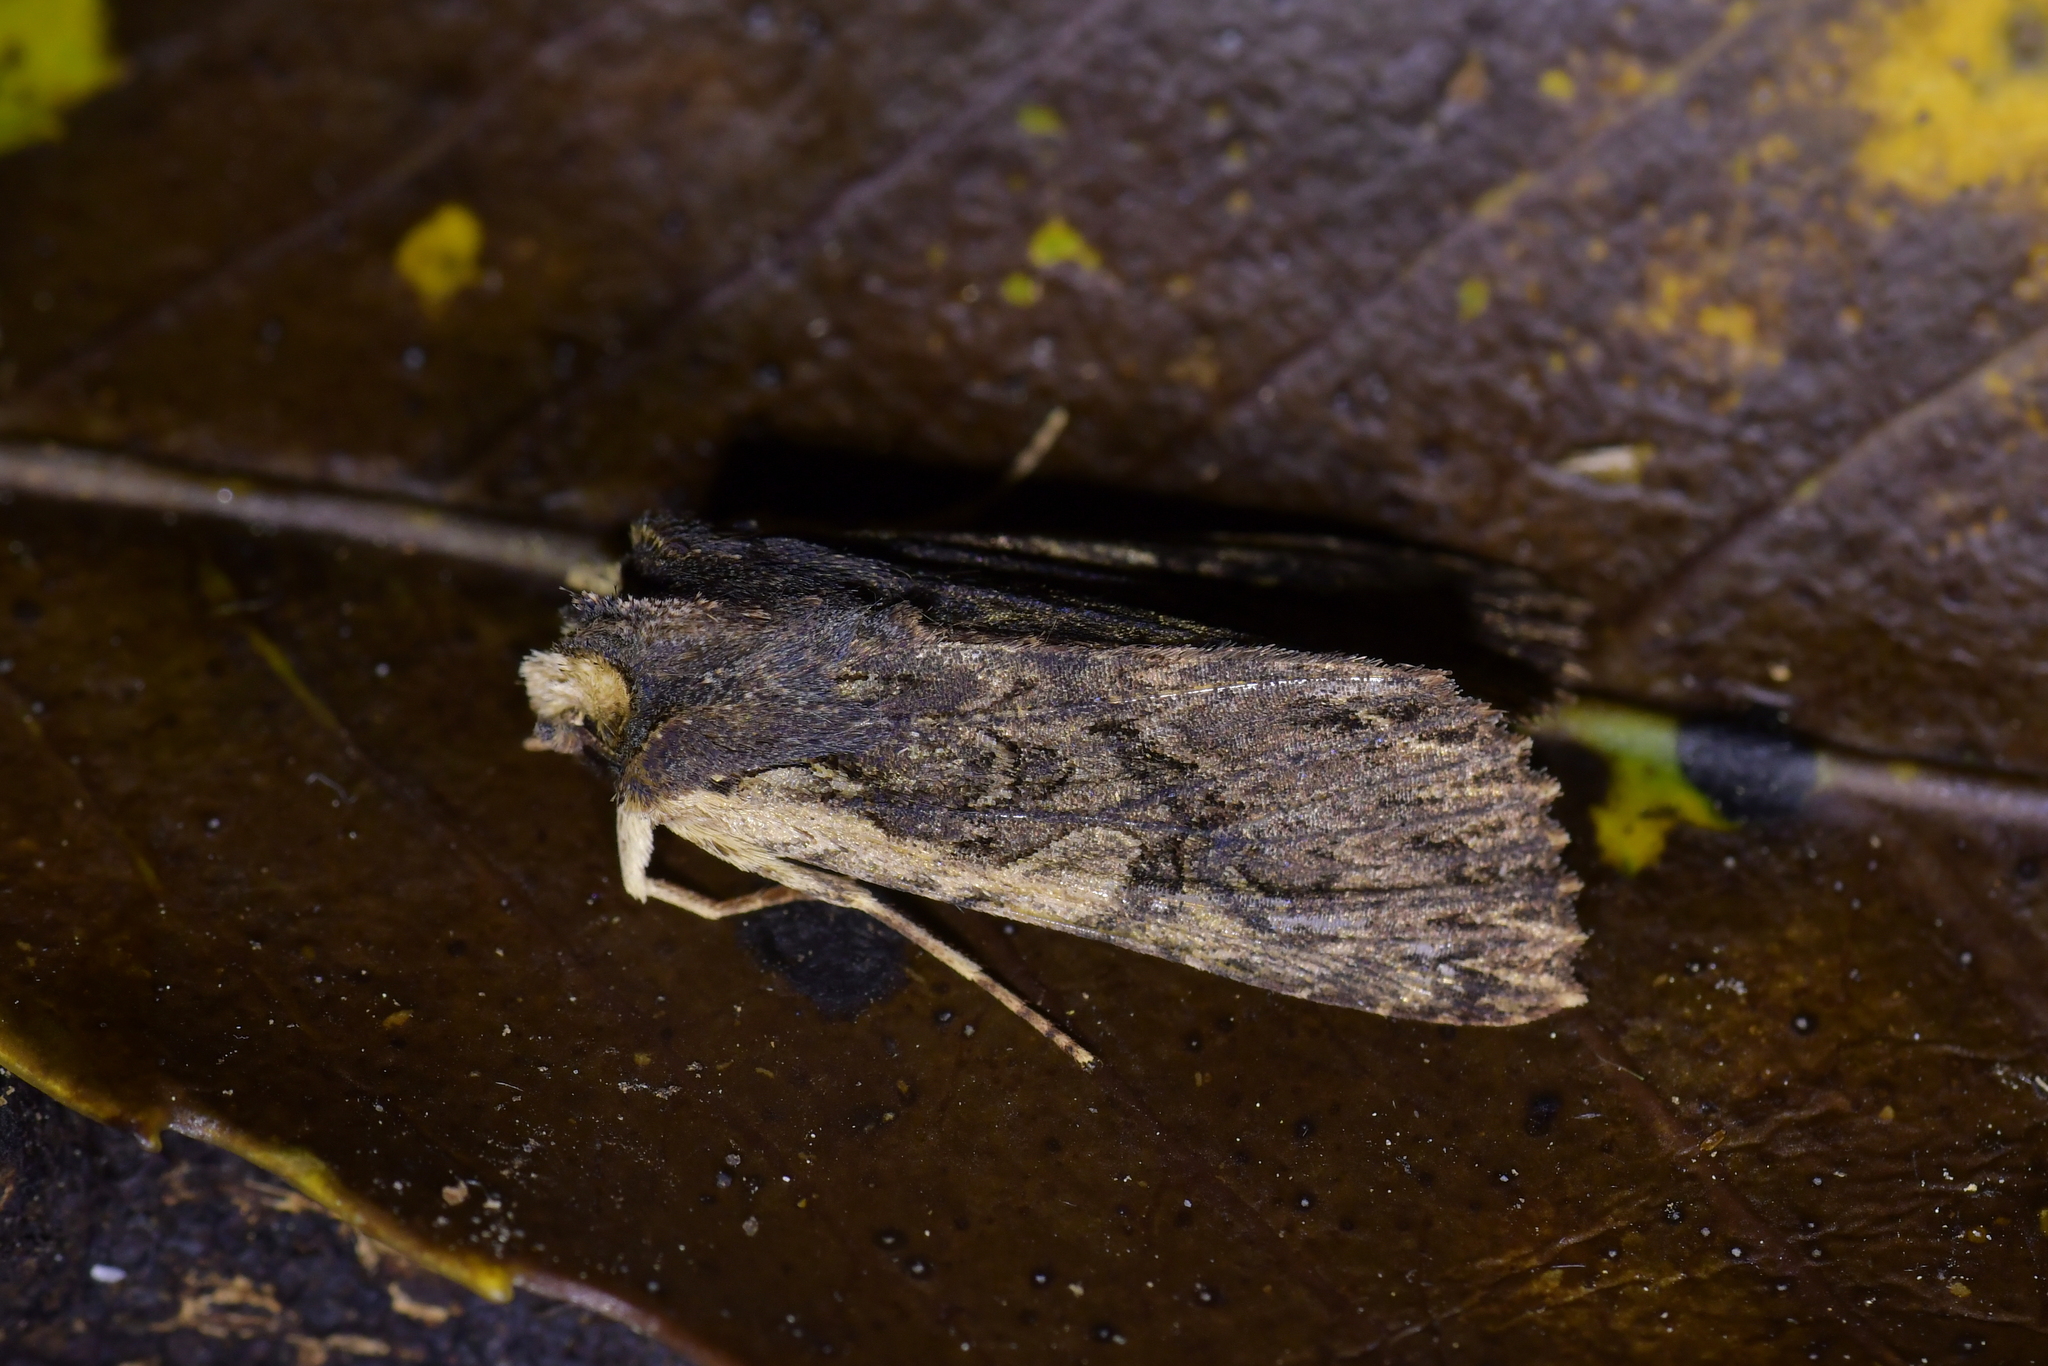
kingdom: Animalia
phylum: Arthropoda
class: Insecta
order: Lepidoptera
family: Noctuidae
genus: Meterana
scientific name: Meterana alcyone
